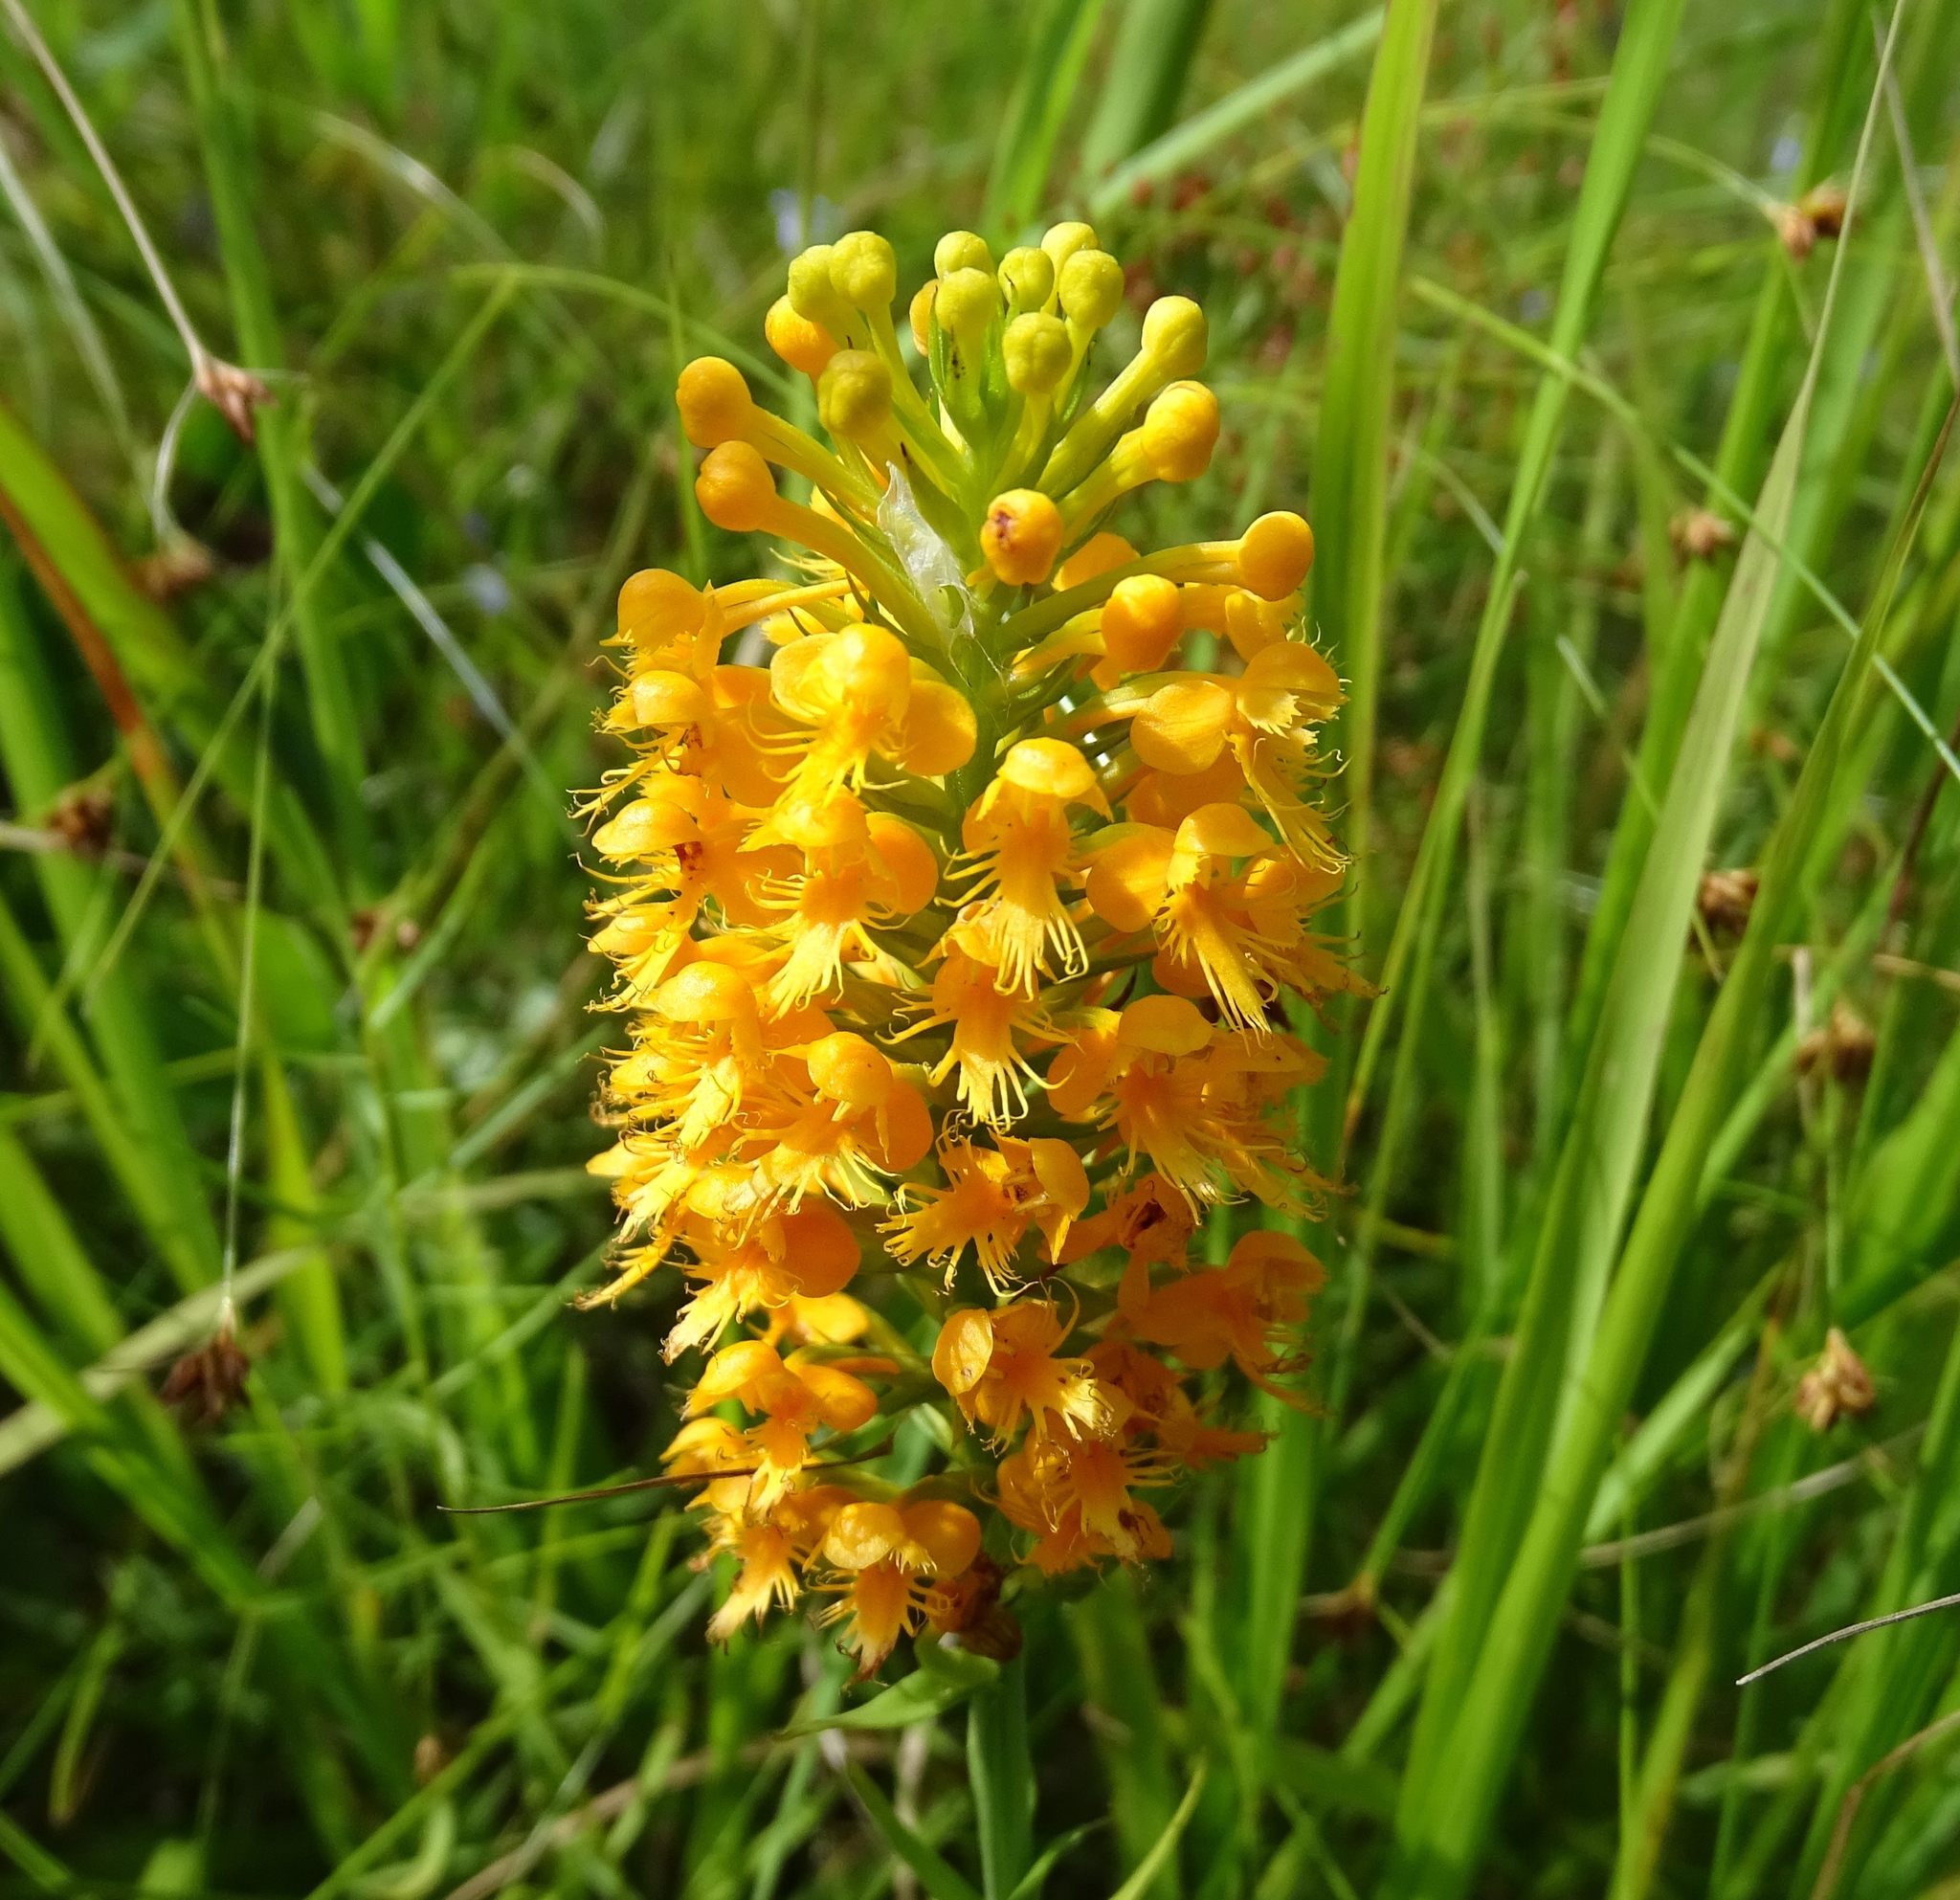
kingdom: Plantae
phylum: Tracheophyta
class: Liliopsida
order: Asparagales
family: Orchidaceae
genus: Platanthera
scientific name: Platanthera cristata
